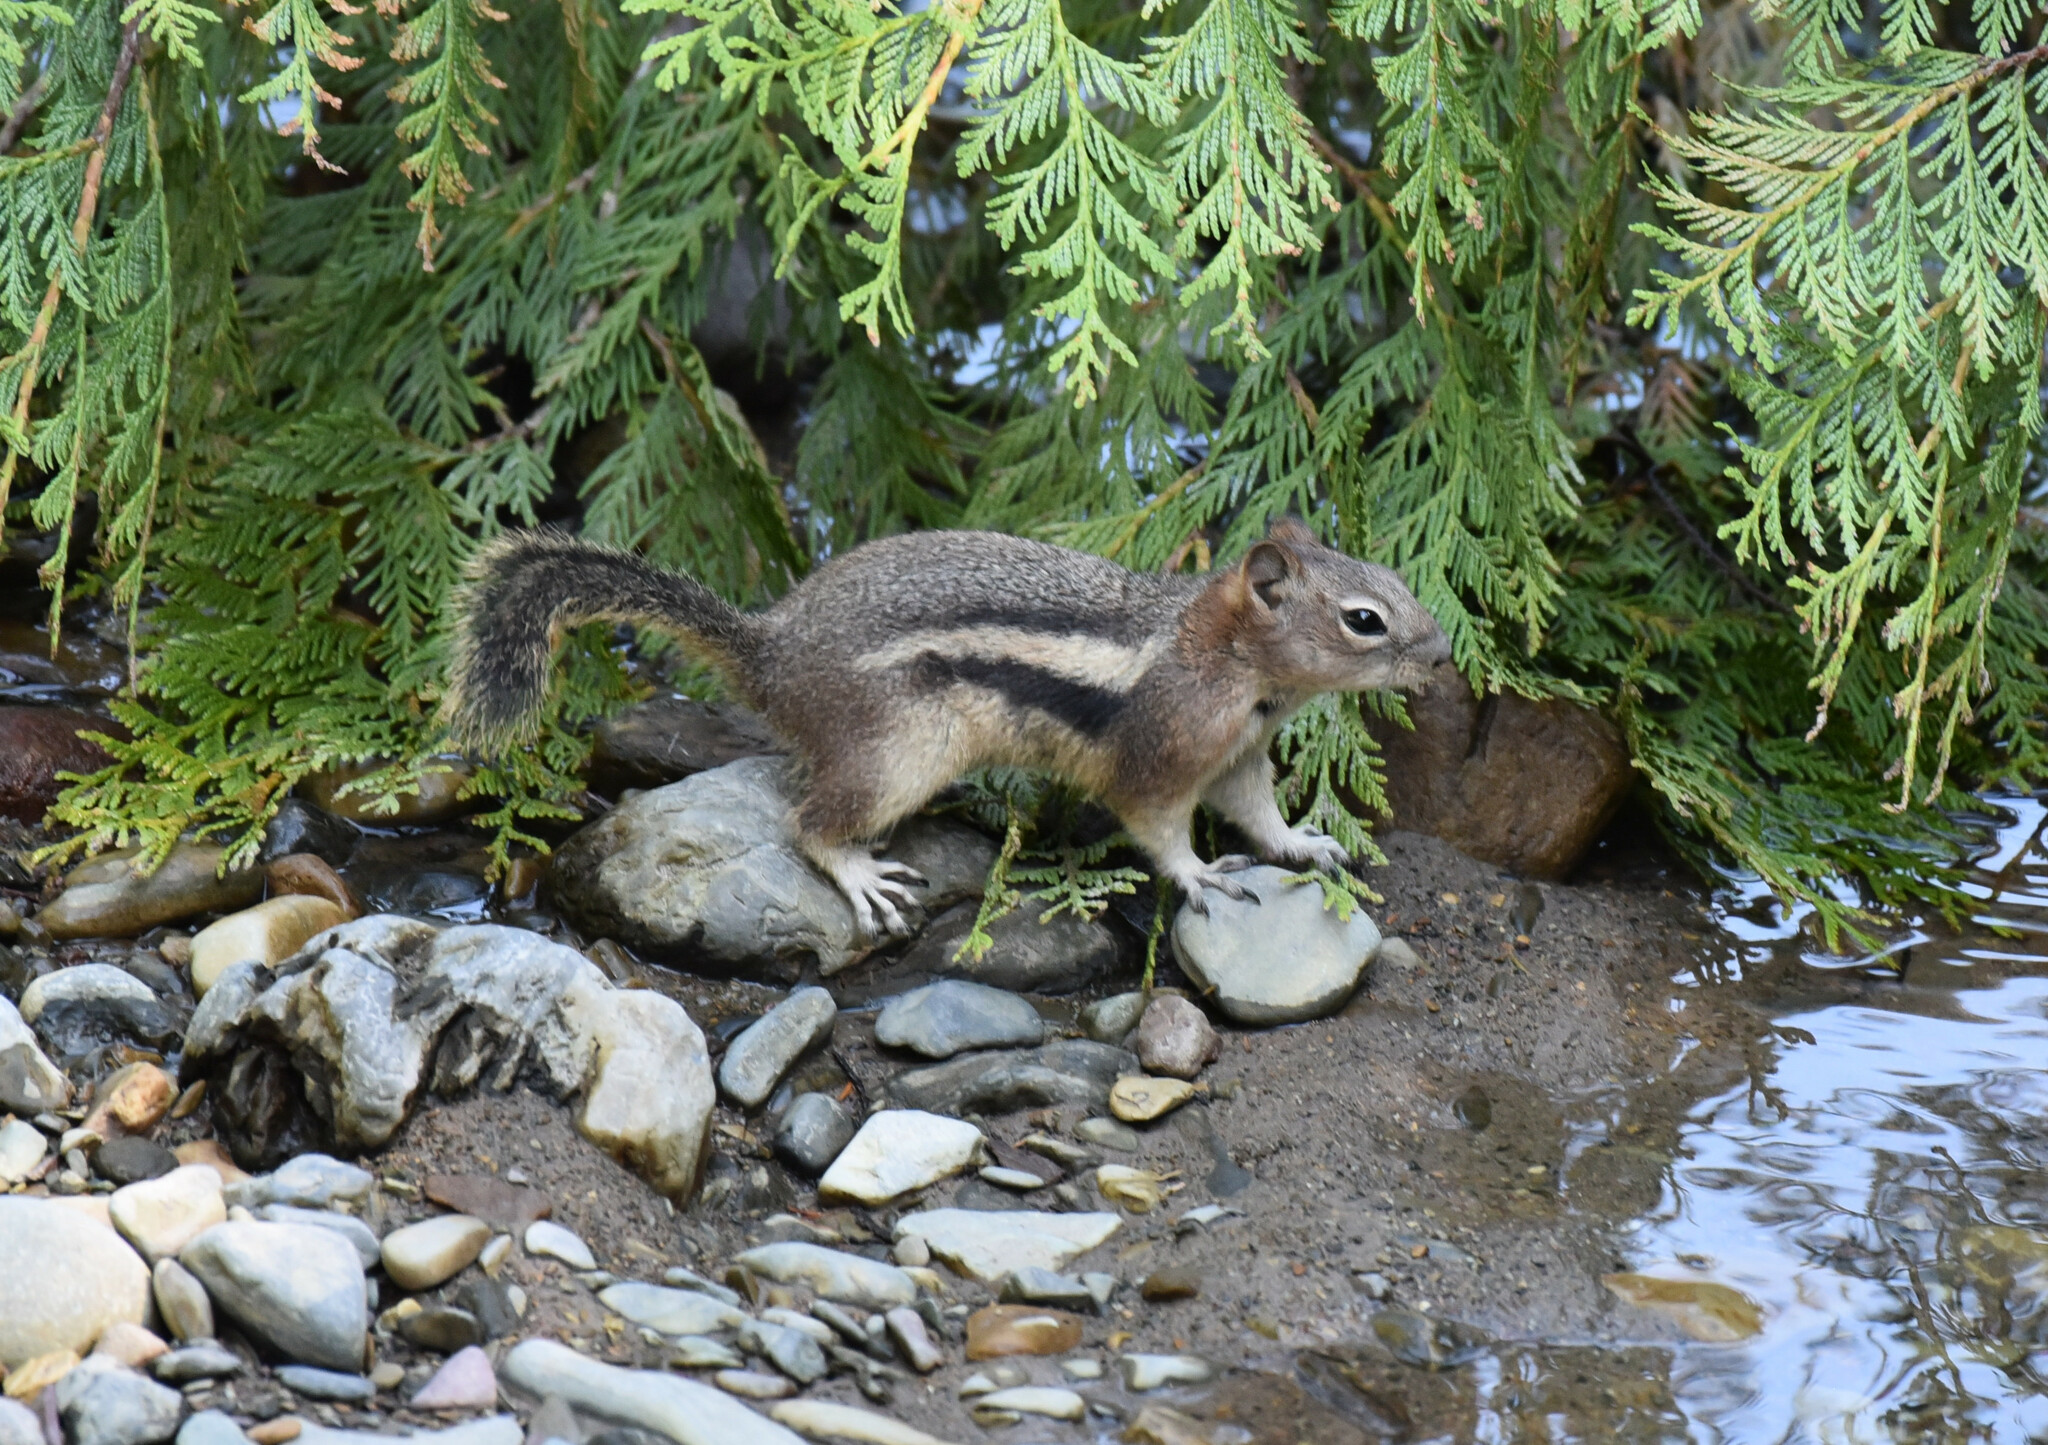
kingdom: Animalia
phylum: Chordata
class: Mammalia
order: Rodentia
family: Sciuridae
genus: Callospermophilus
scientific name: Callospermophilus lateralis
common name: Golden-mantled ground squirrel
